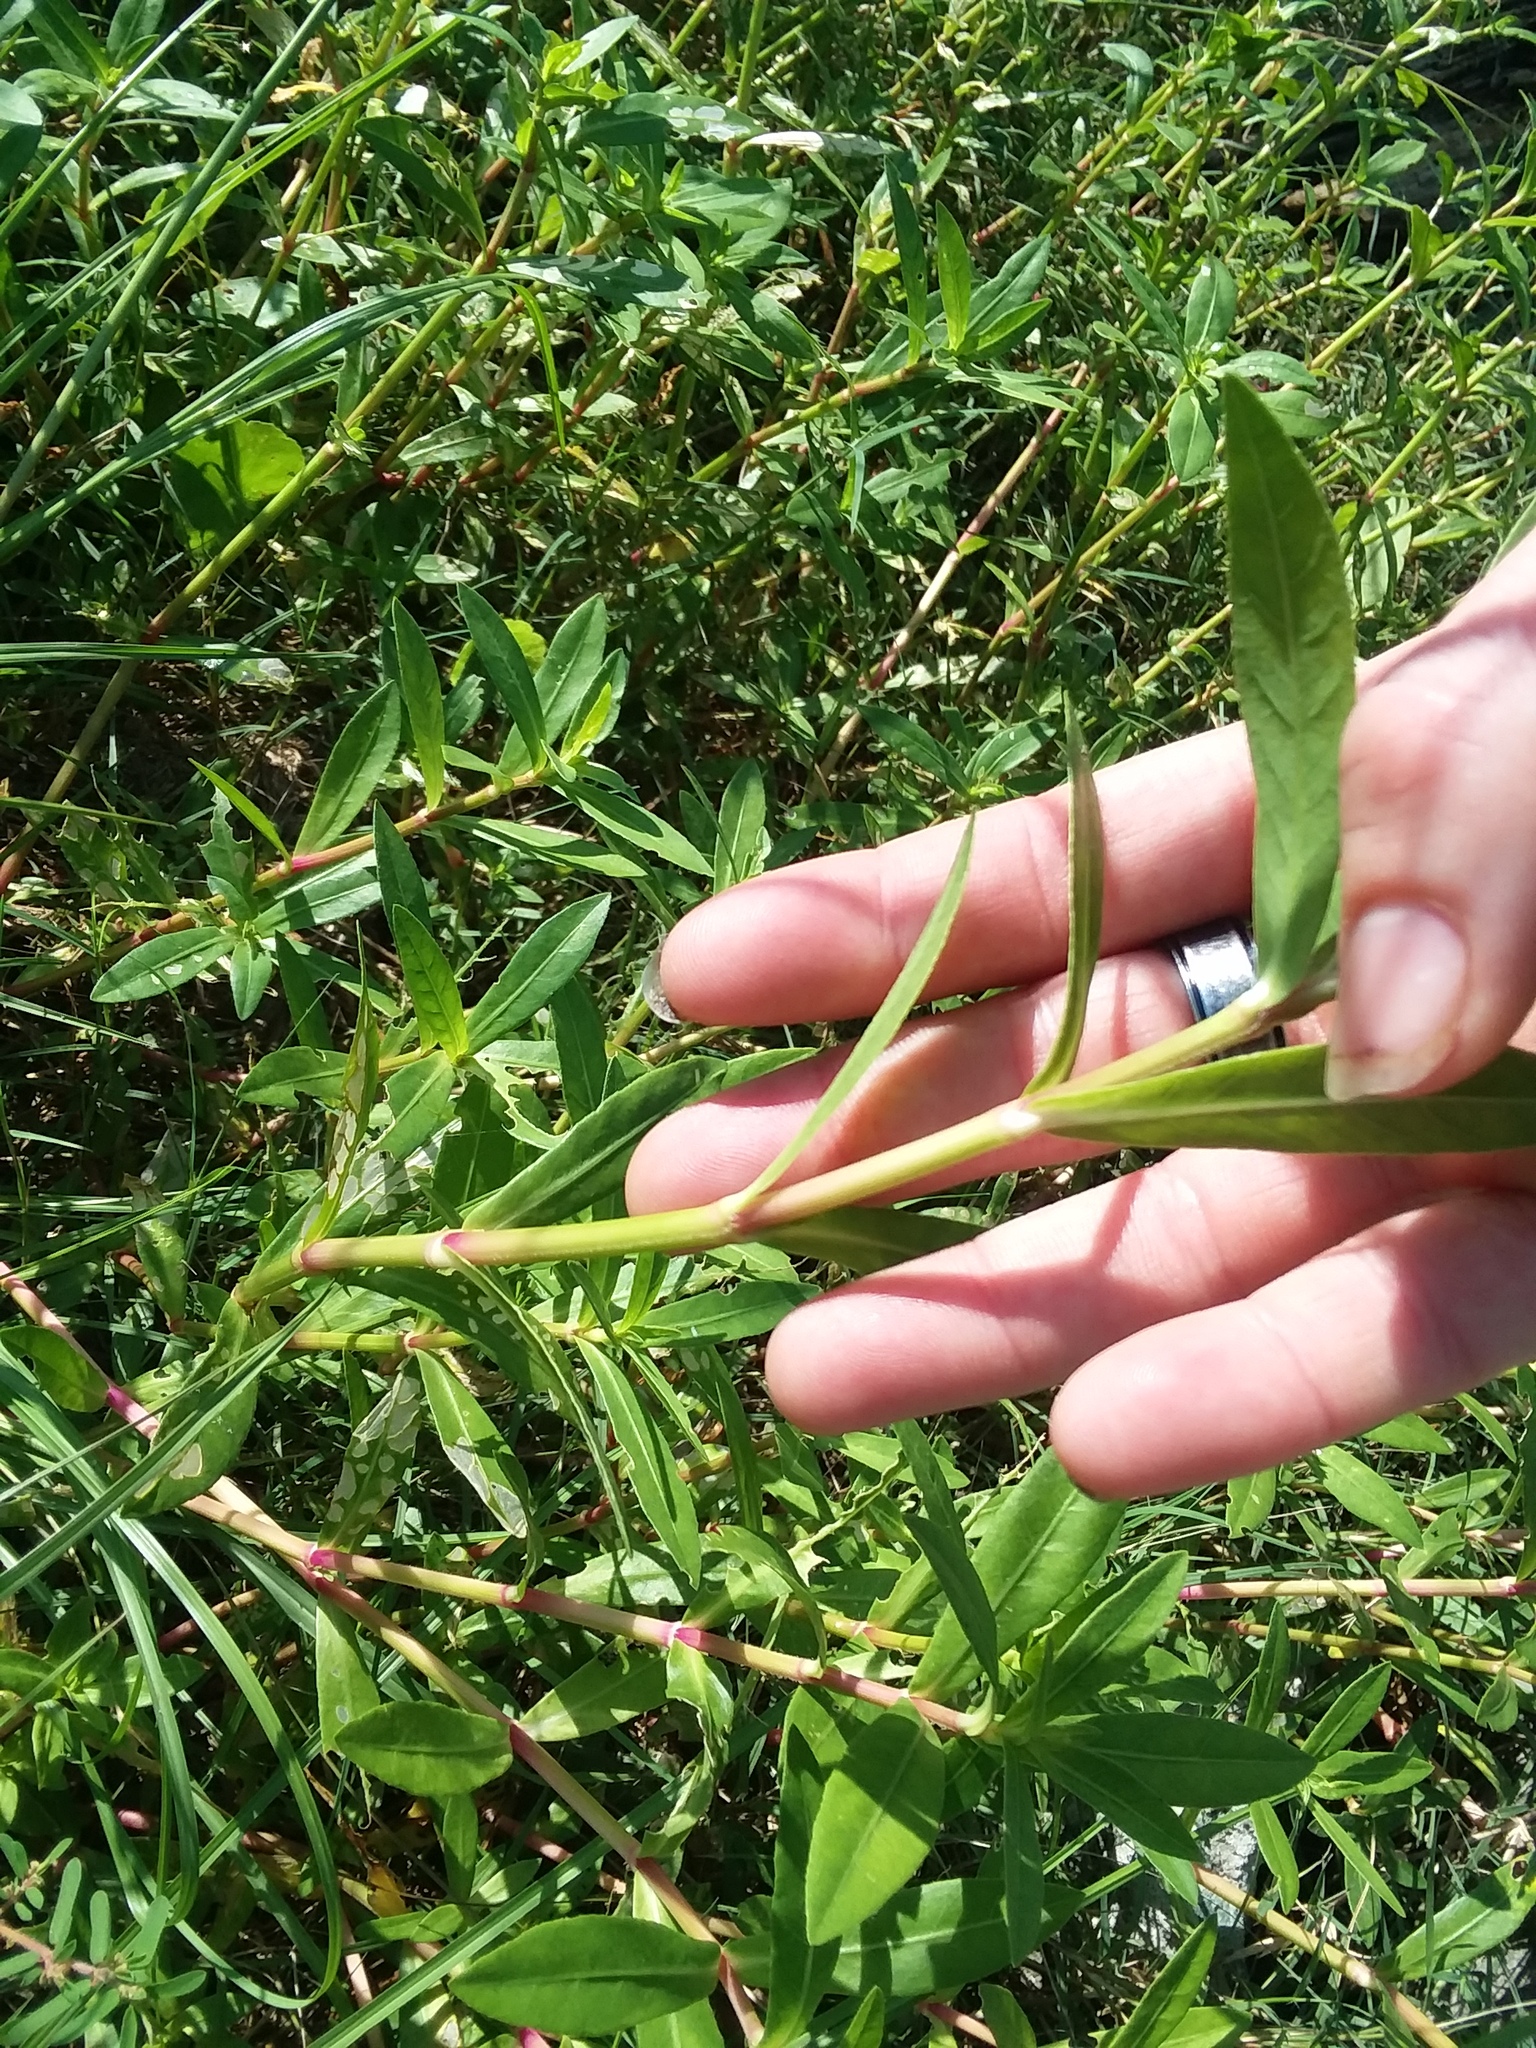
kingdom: Plantae
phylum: Tracheophyta
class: Magnoliopsida
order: Caryophyllales
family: Amaranthaceae
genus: Alternanthera
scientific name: Alternanthera philoxeroides
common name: Alligatorweed
